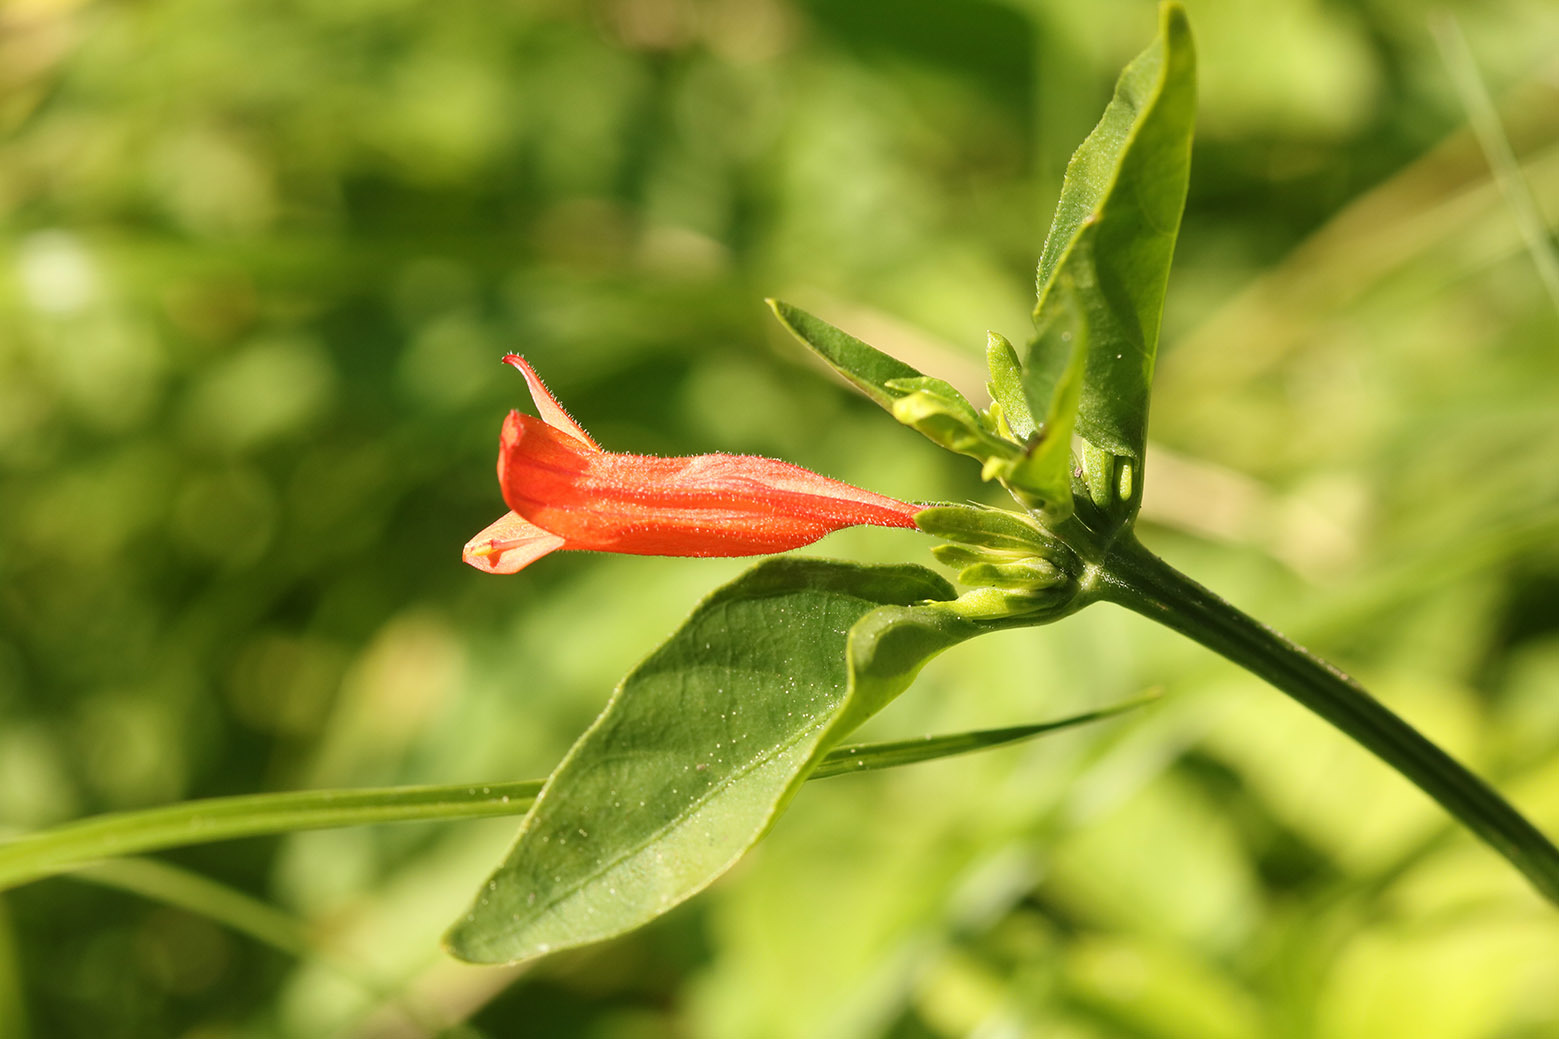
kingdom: Plantae
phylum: Tracheophyta
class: Magnoliopsida
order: Lamiales
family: Acanthaceae
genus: Dicliptera
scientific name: Dicliptera squarrosa
